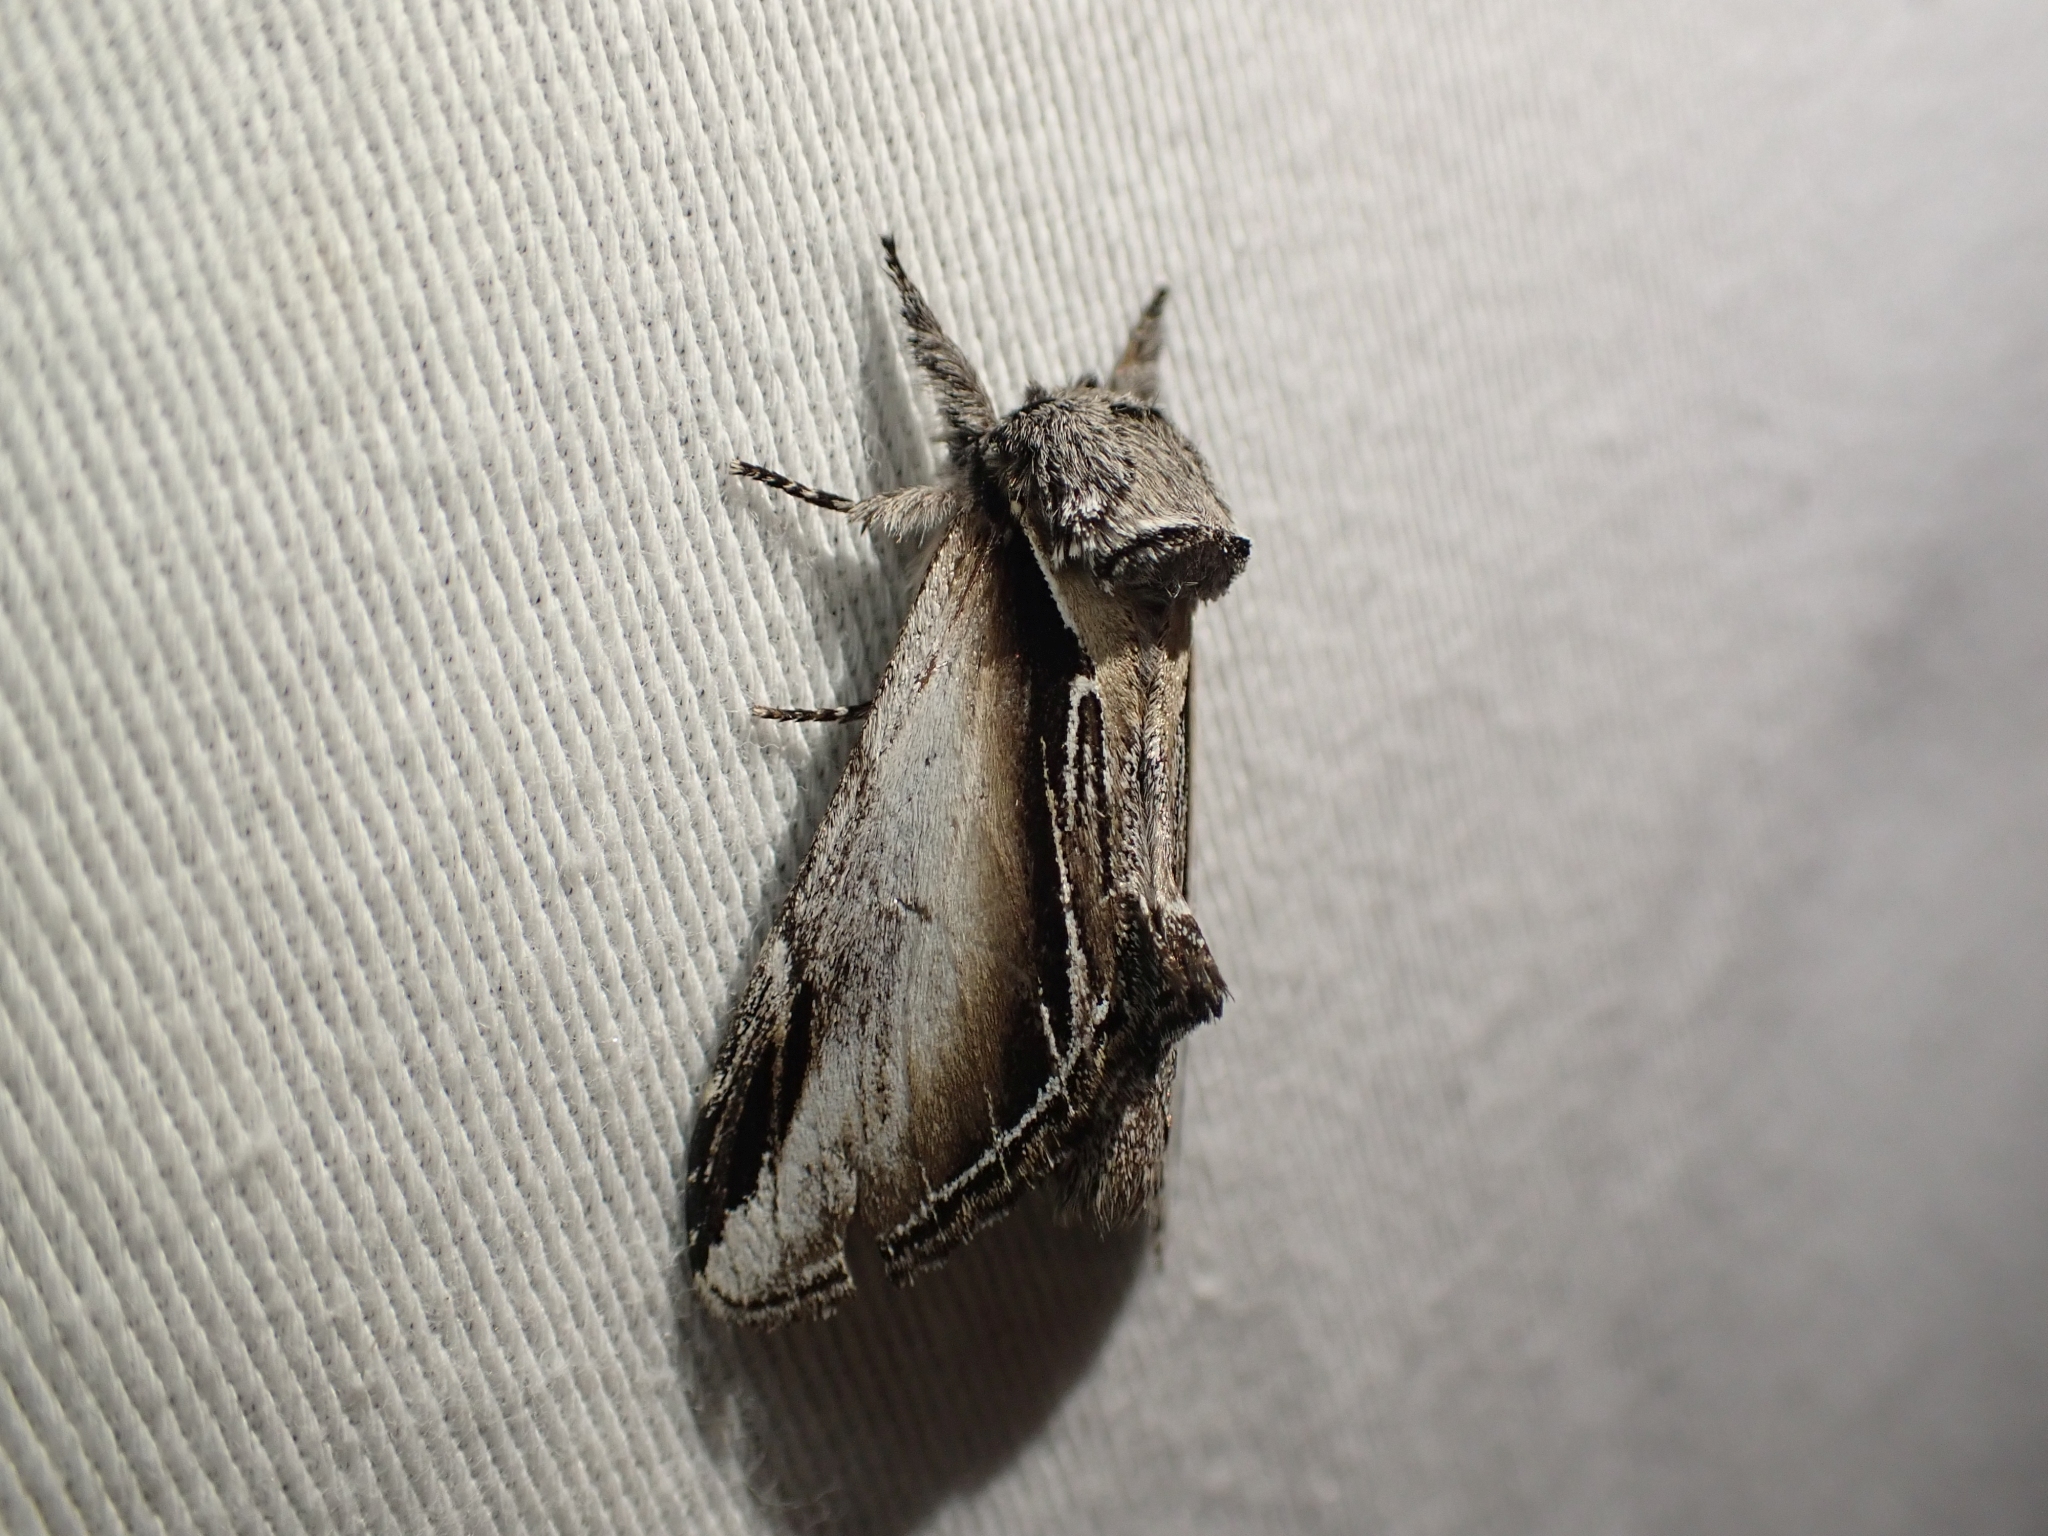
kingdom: Animalia
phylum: Arthropoda
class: Insecta
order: Lepidoptera
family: Notodontidae
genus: Pheosia
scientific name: Pheosia rimosa
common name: Black-rimmed prominent
